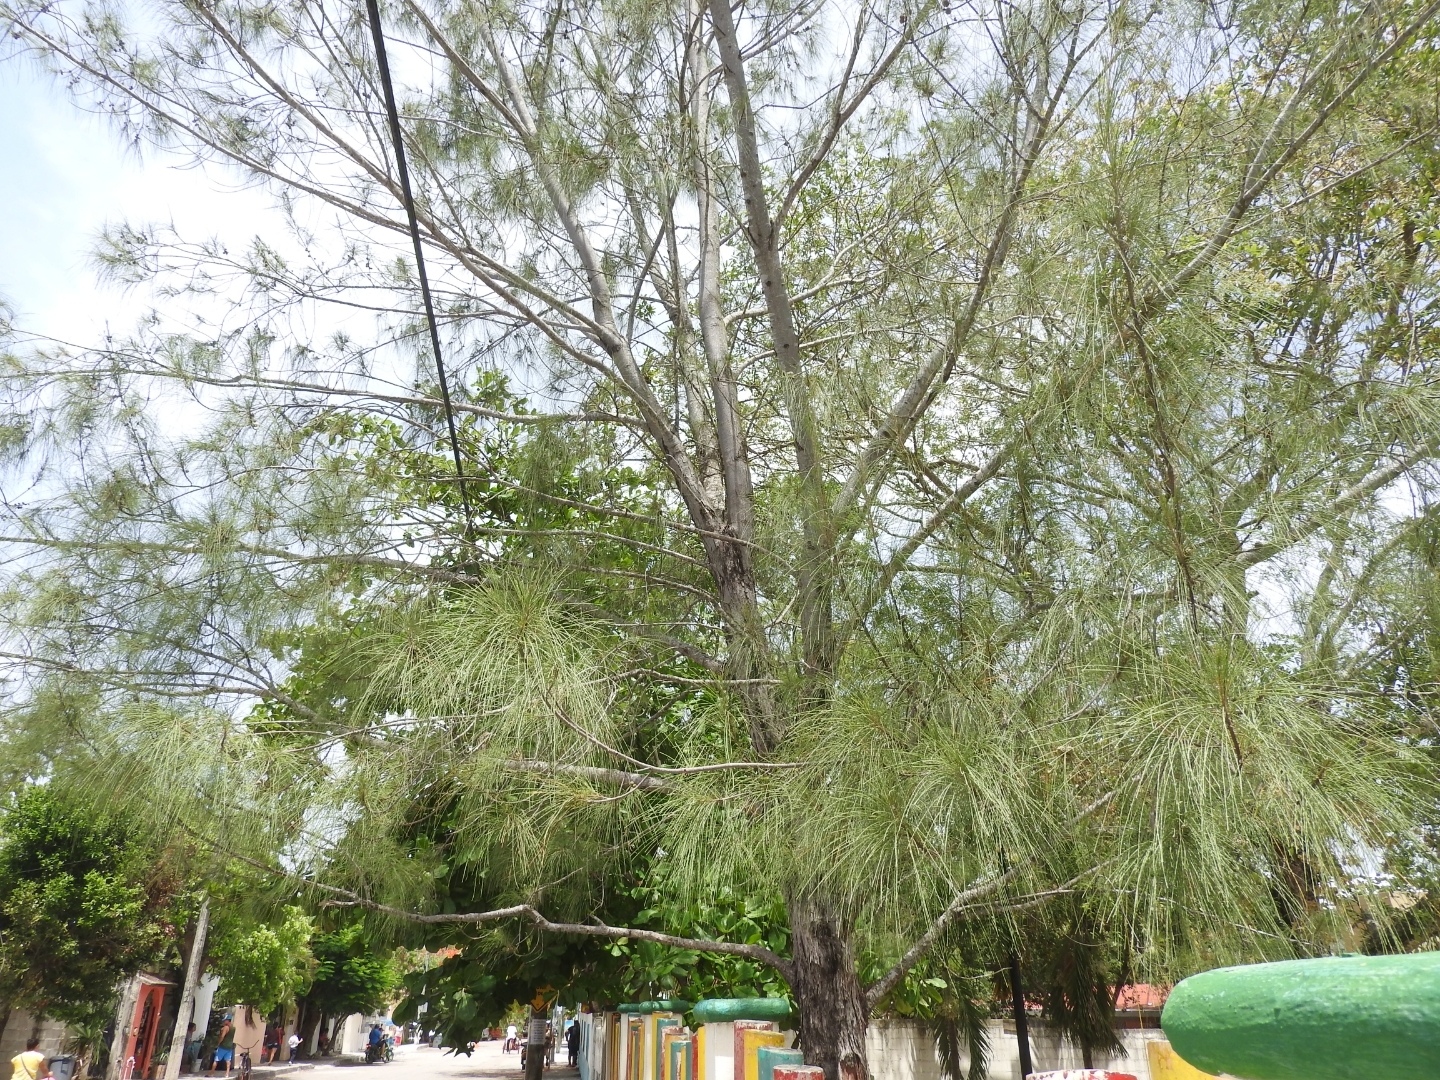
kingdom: Plantae
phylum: Tracheophyta
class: Magnoliopsida
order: Fagales
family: Casuarinaceae
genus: Casuarina
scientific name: Casuarina equisetifolia
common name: Beach sheoak
